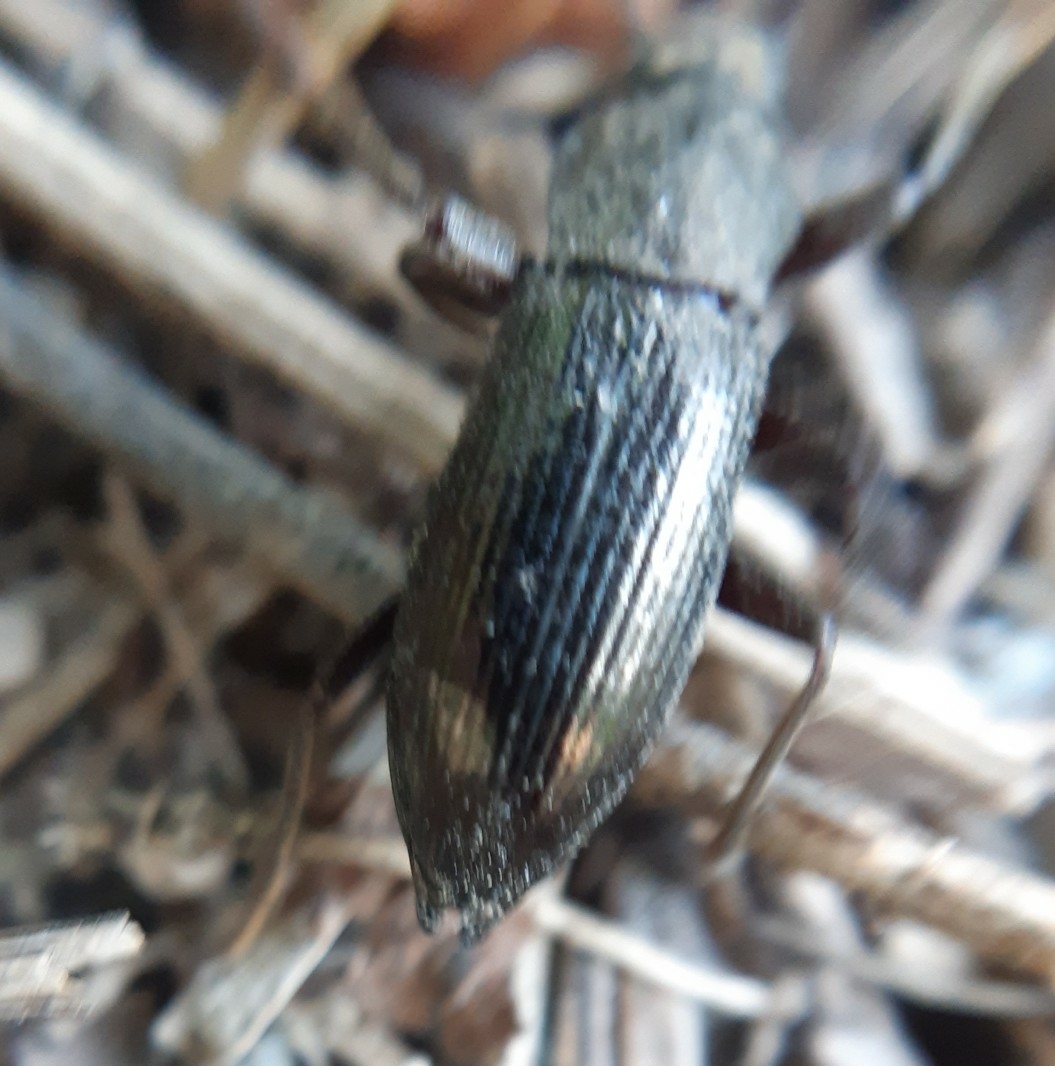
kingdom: Animalia
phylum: Arthropoda
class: Insecta
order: Coleoptera
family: Tenebrionidae
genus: Stenomax
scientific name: Stenomax aeneus
